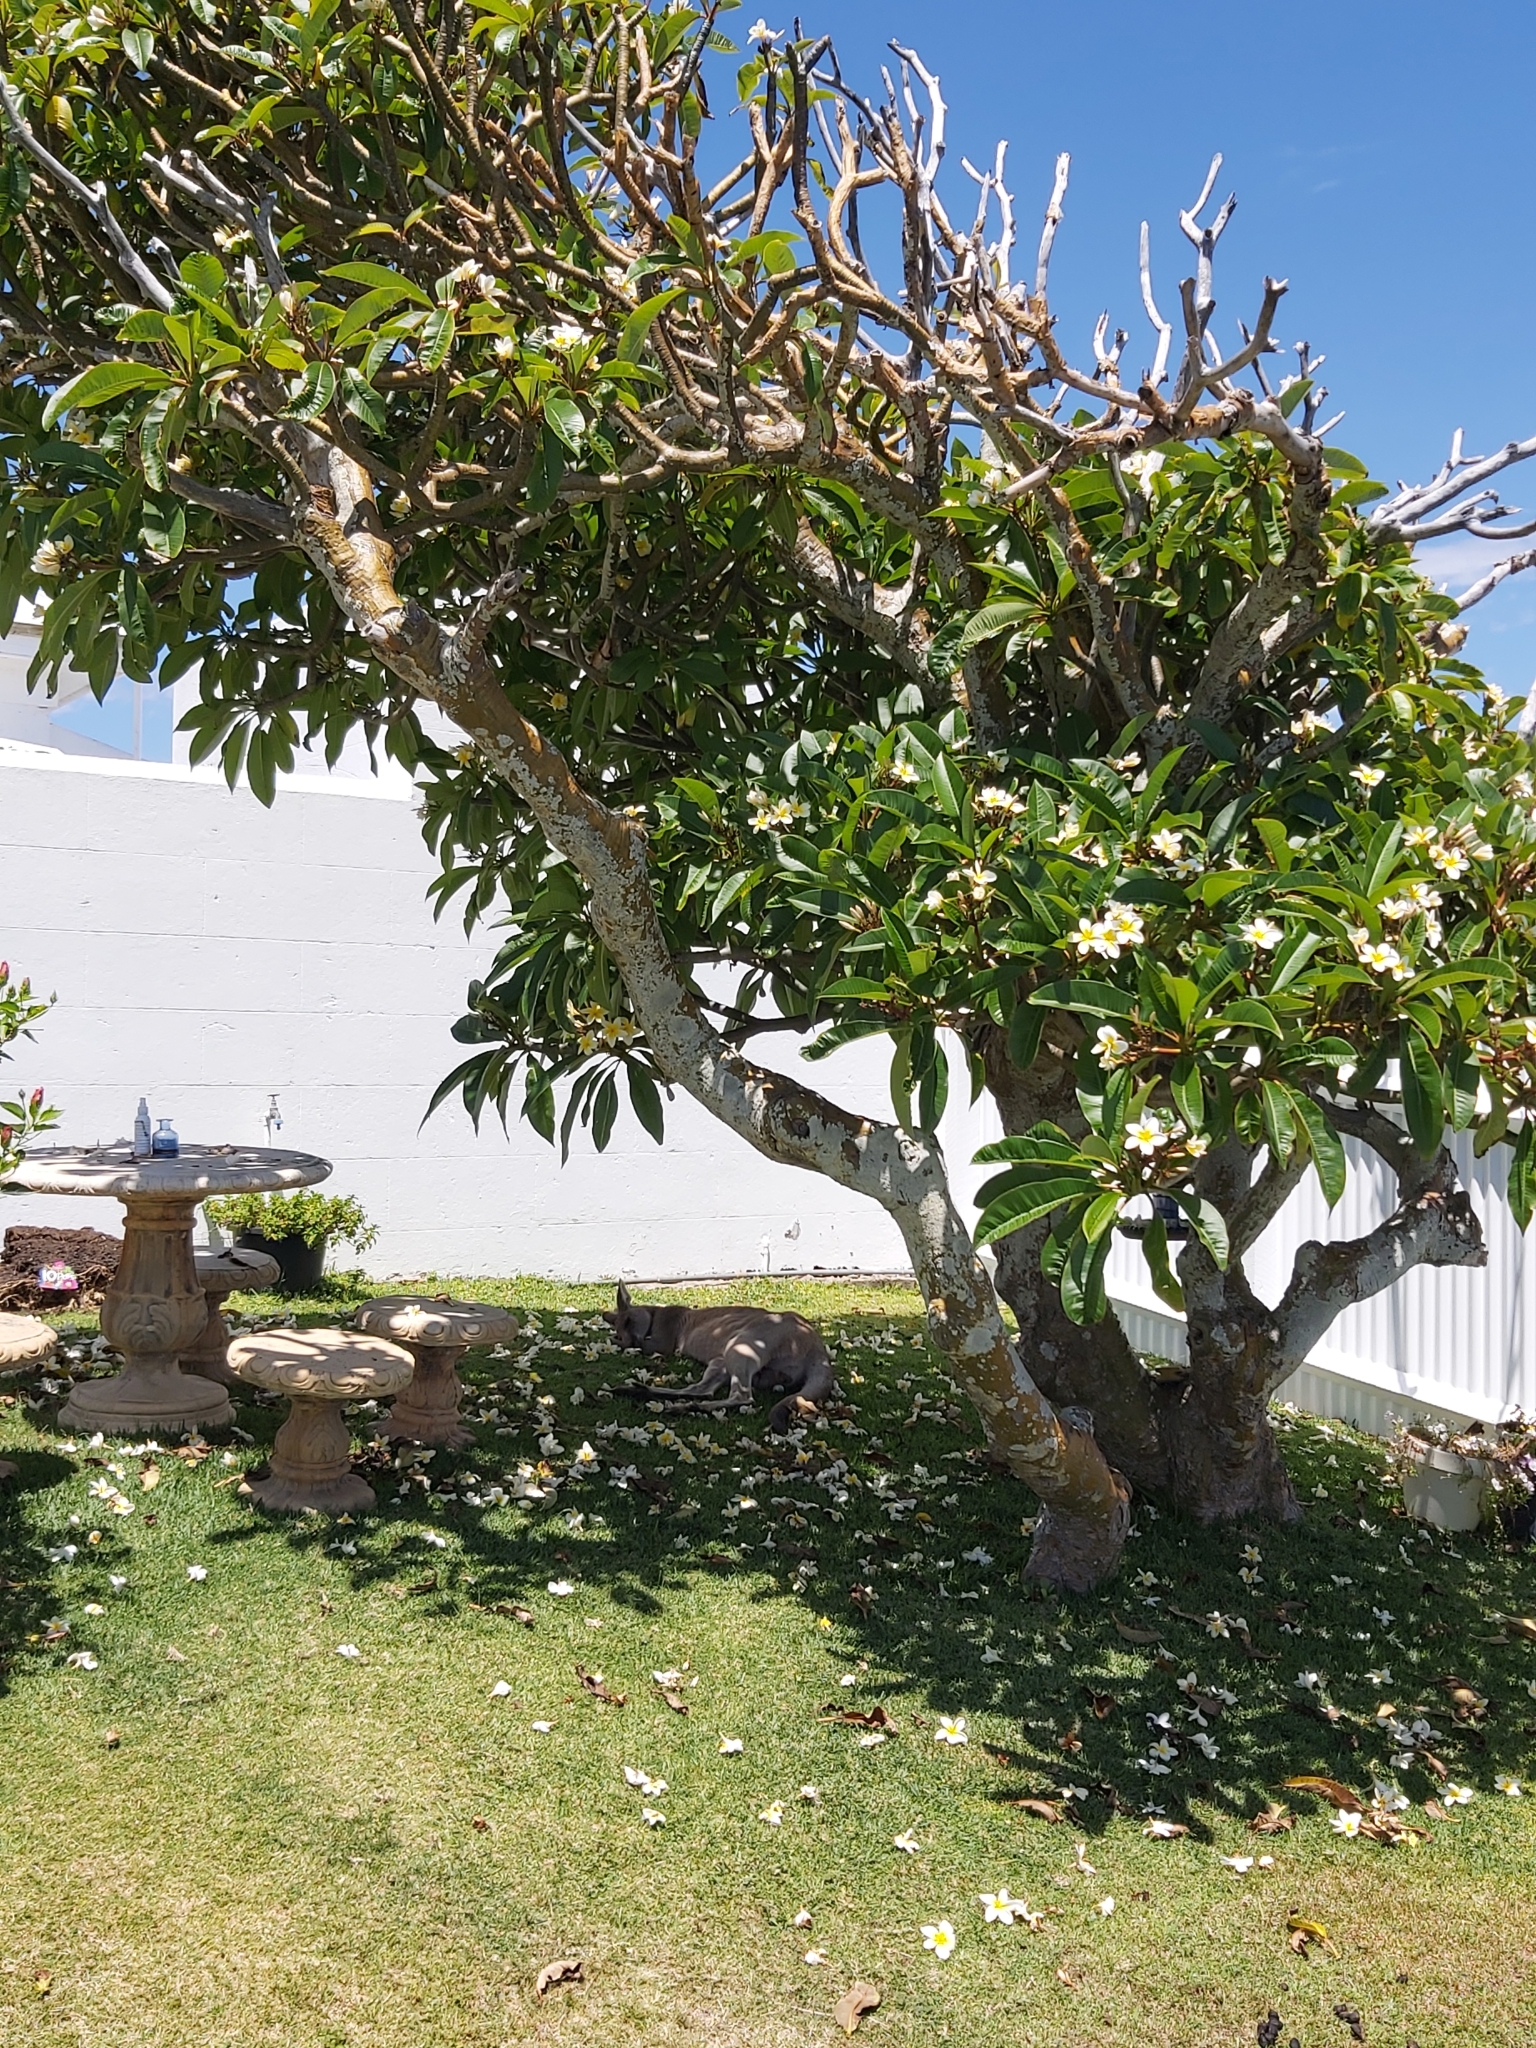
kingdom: Animalia
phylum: Chordata
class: Mammalia
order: Diprotodontia
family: Macropodidae
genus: Macropus
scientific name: Macropus giganteus
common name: Eastern grey kangaroo
